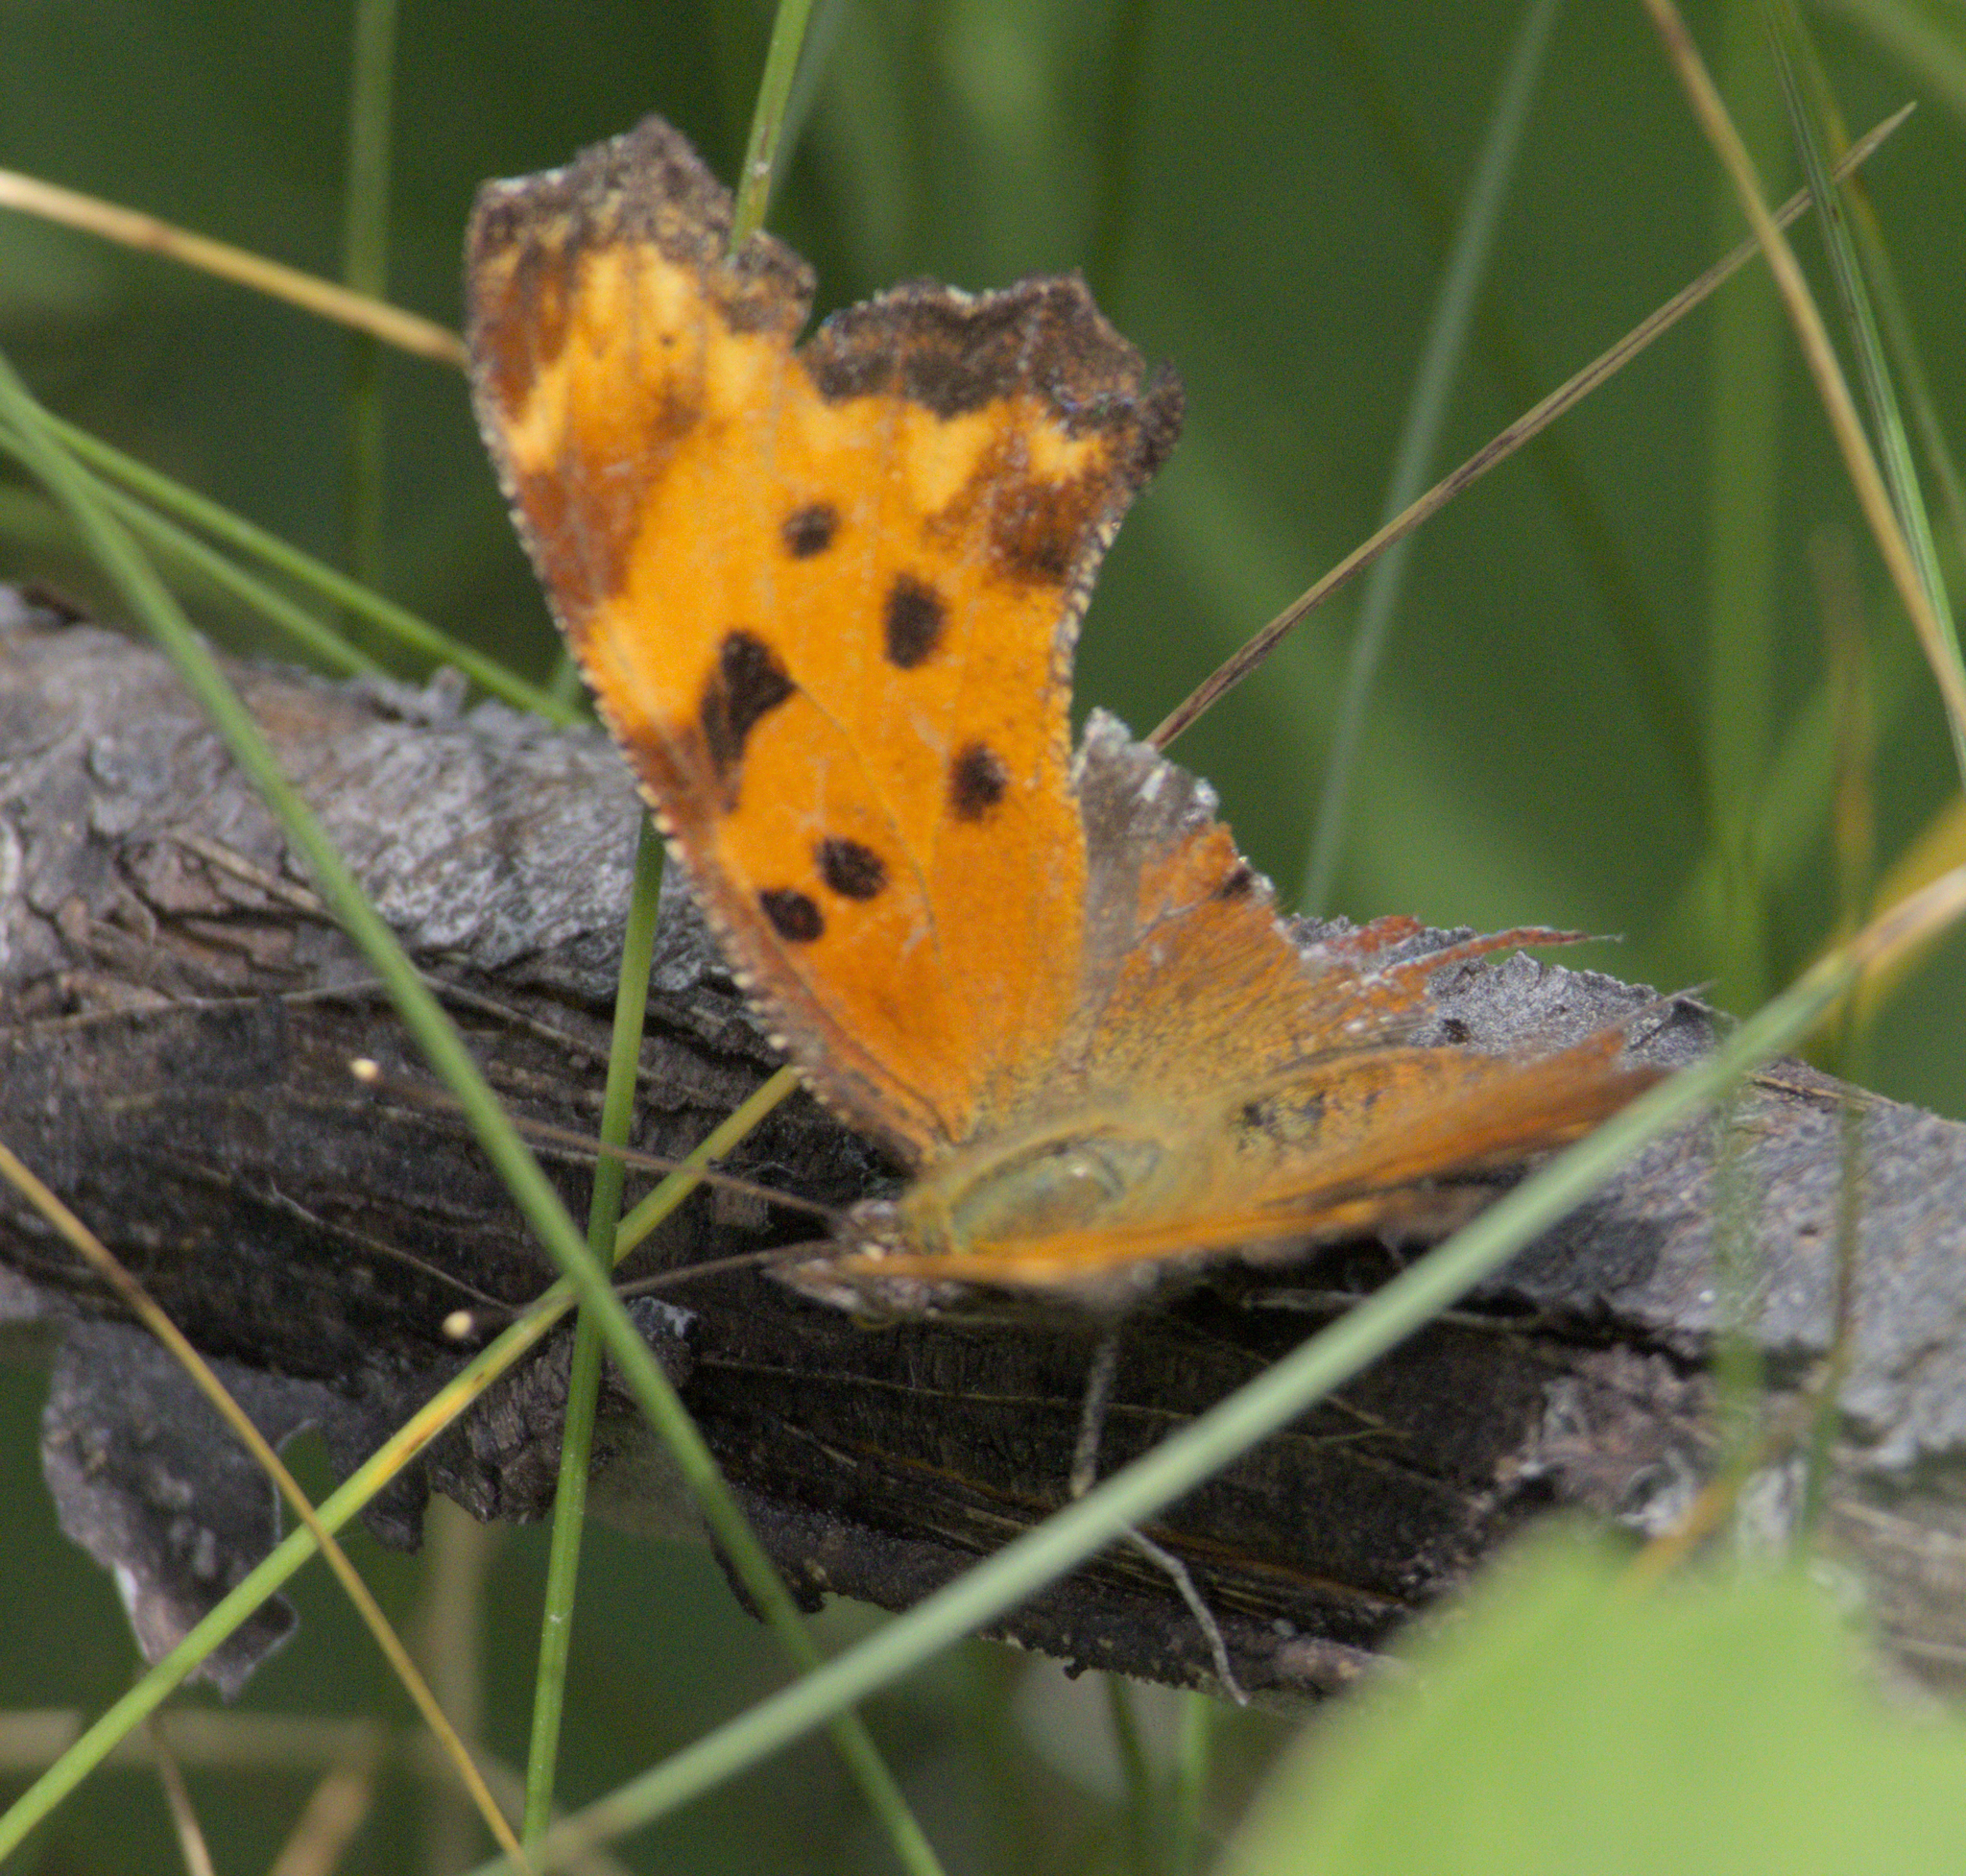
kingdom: Animalia
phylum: Arthropoda
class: Insecta
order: Lepidoptera
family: Nymphalidae
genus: Polygonia
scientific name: Polygonia progne
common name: Gray comma
